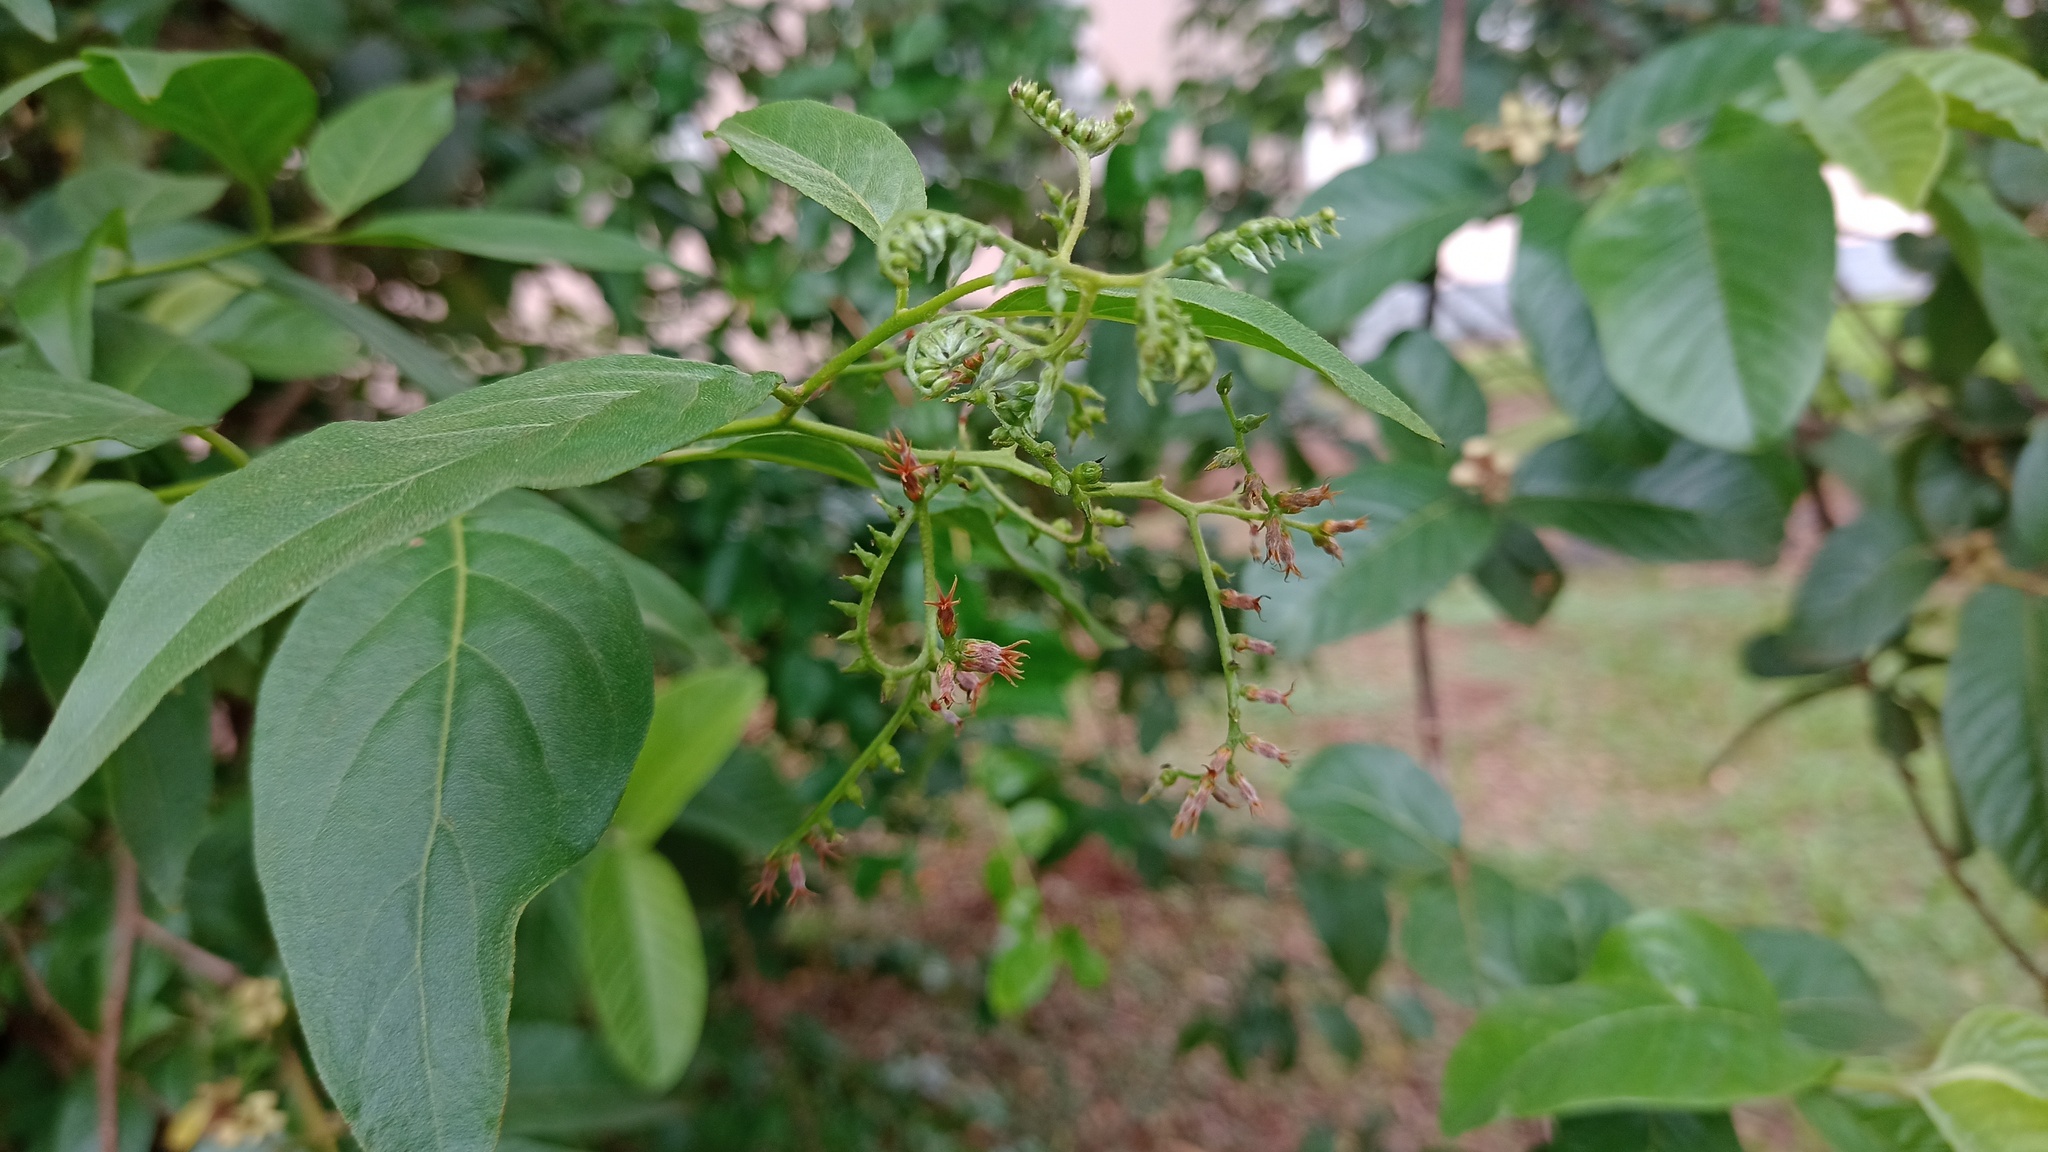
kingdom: Plantae
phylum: Tracheophyta
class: Magnoliopsida
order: Myrtales
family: Myrtaceae
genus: Psidium
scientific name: Psidium guajava
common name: Guava
